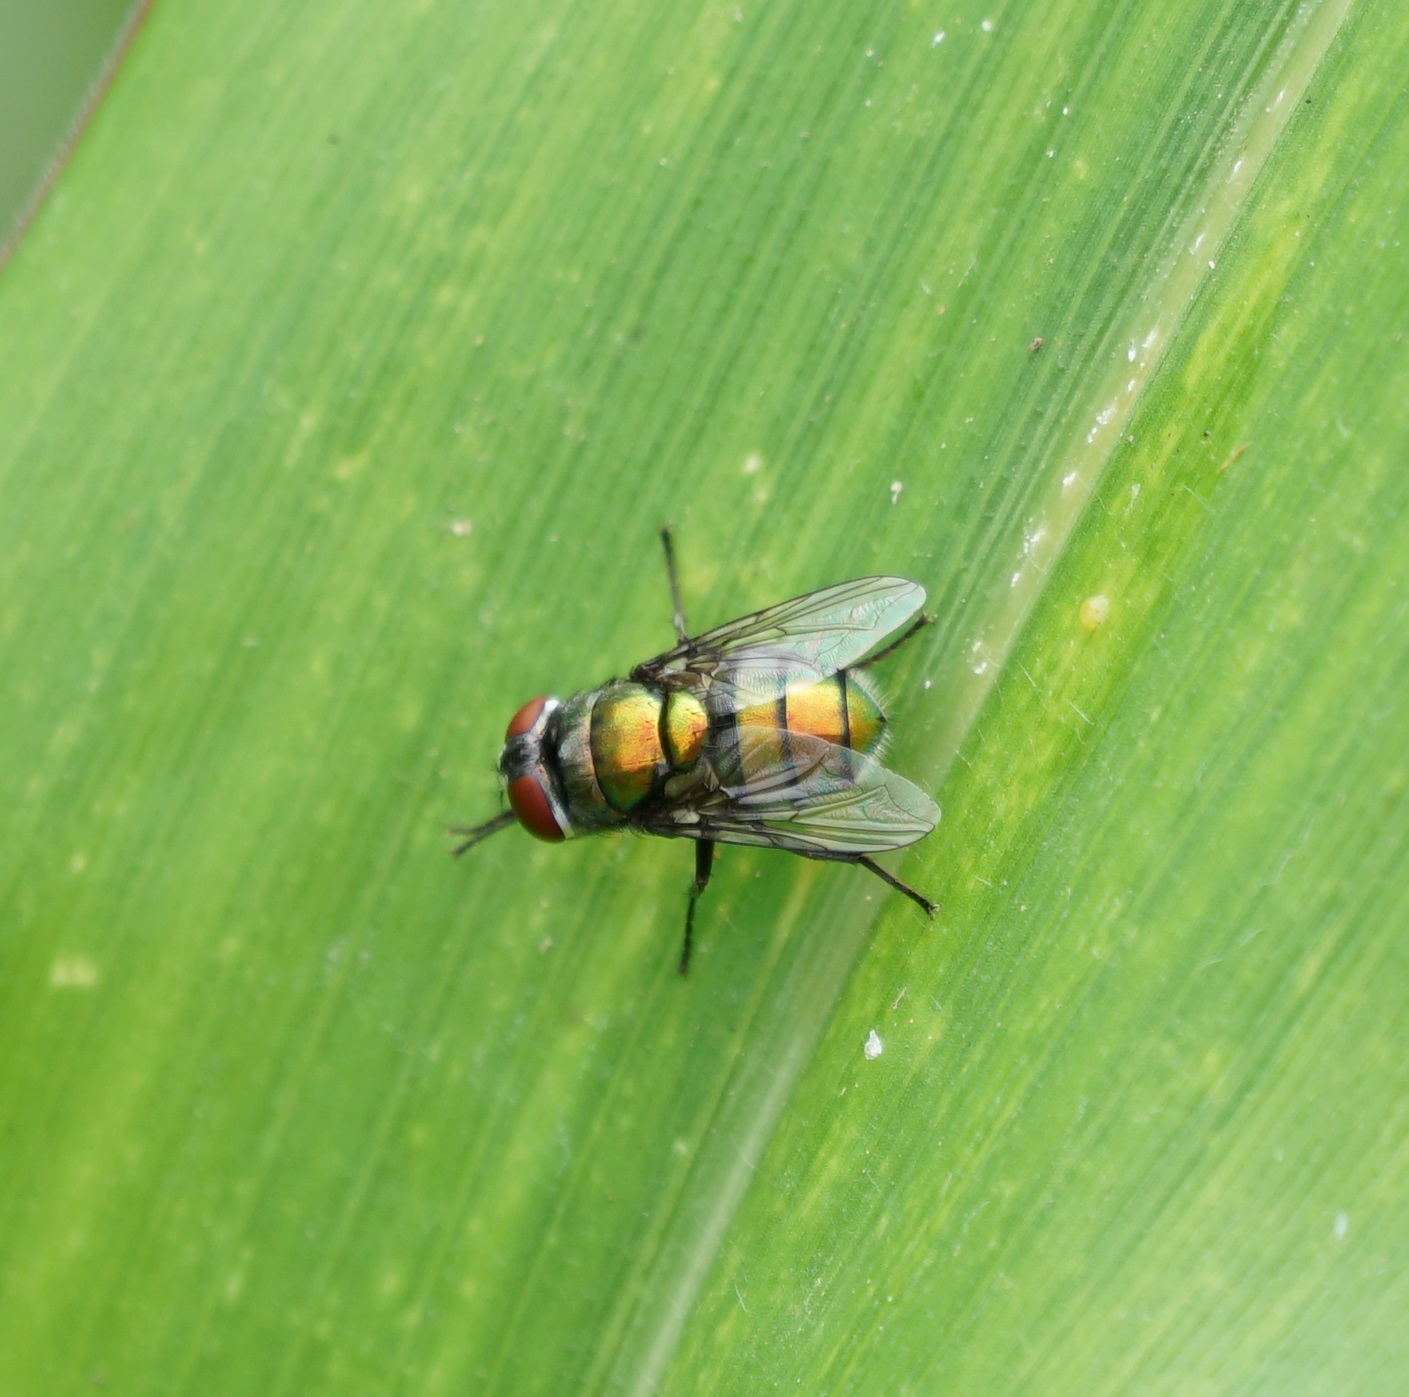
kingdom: Animalia
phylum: Arthropoda
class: Insecta
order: Diptera
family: Calliphoridae
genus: Chrysomya
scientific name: Chrysomya albiceps
